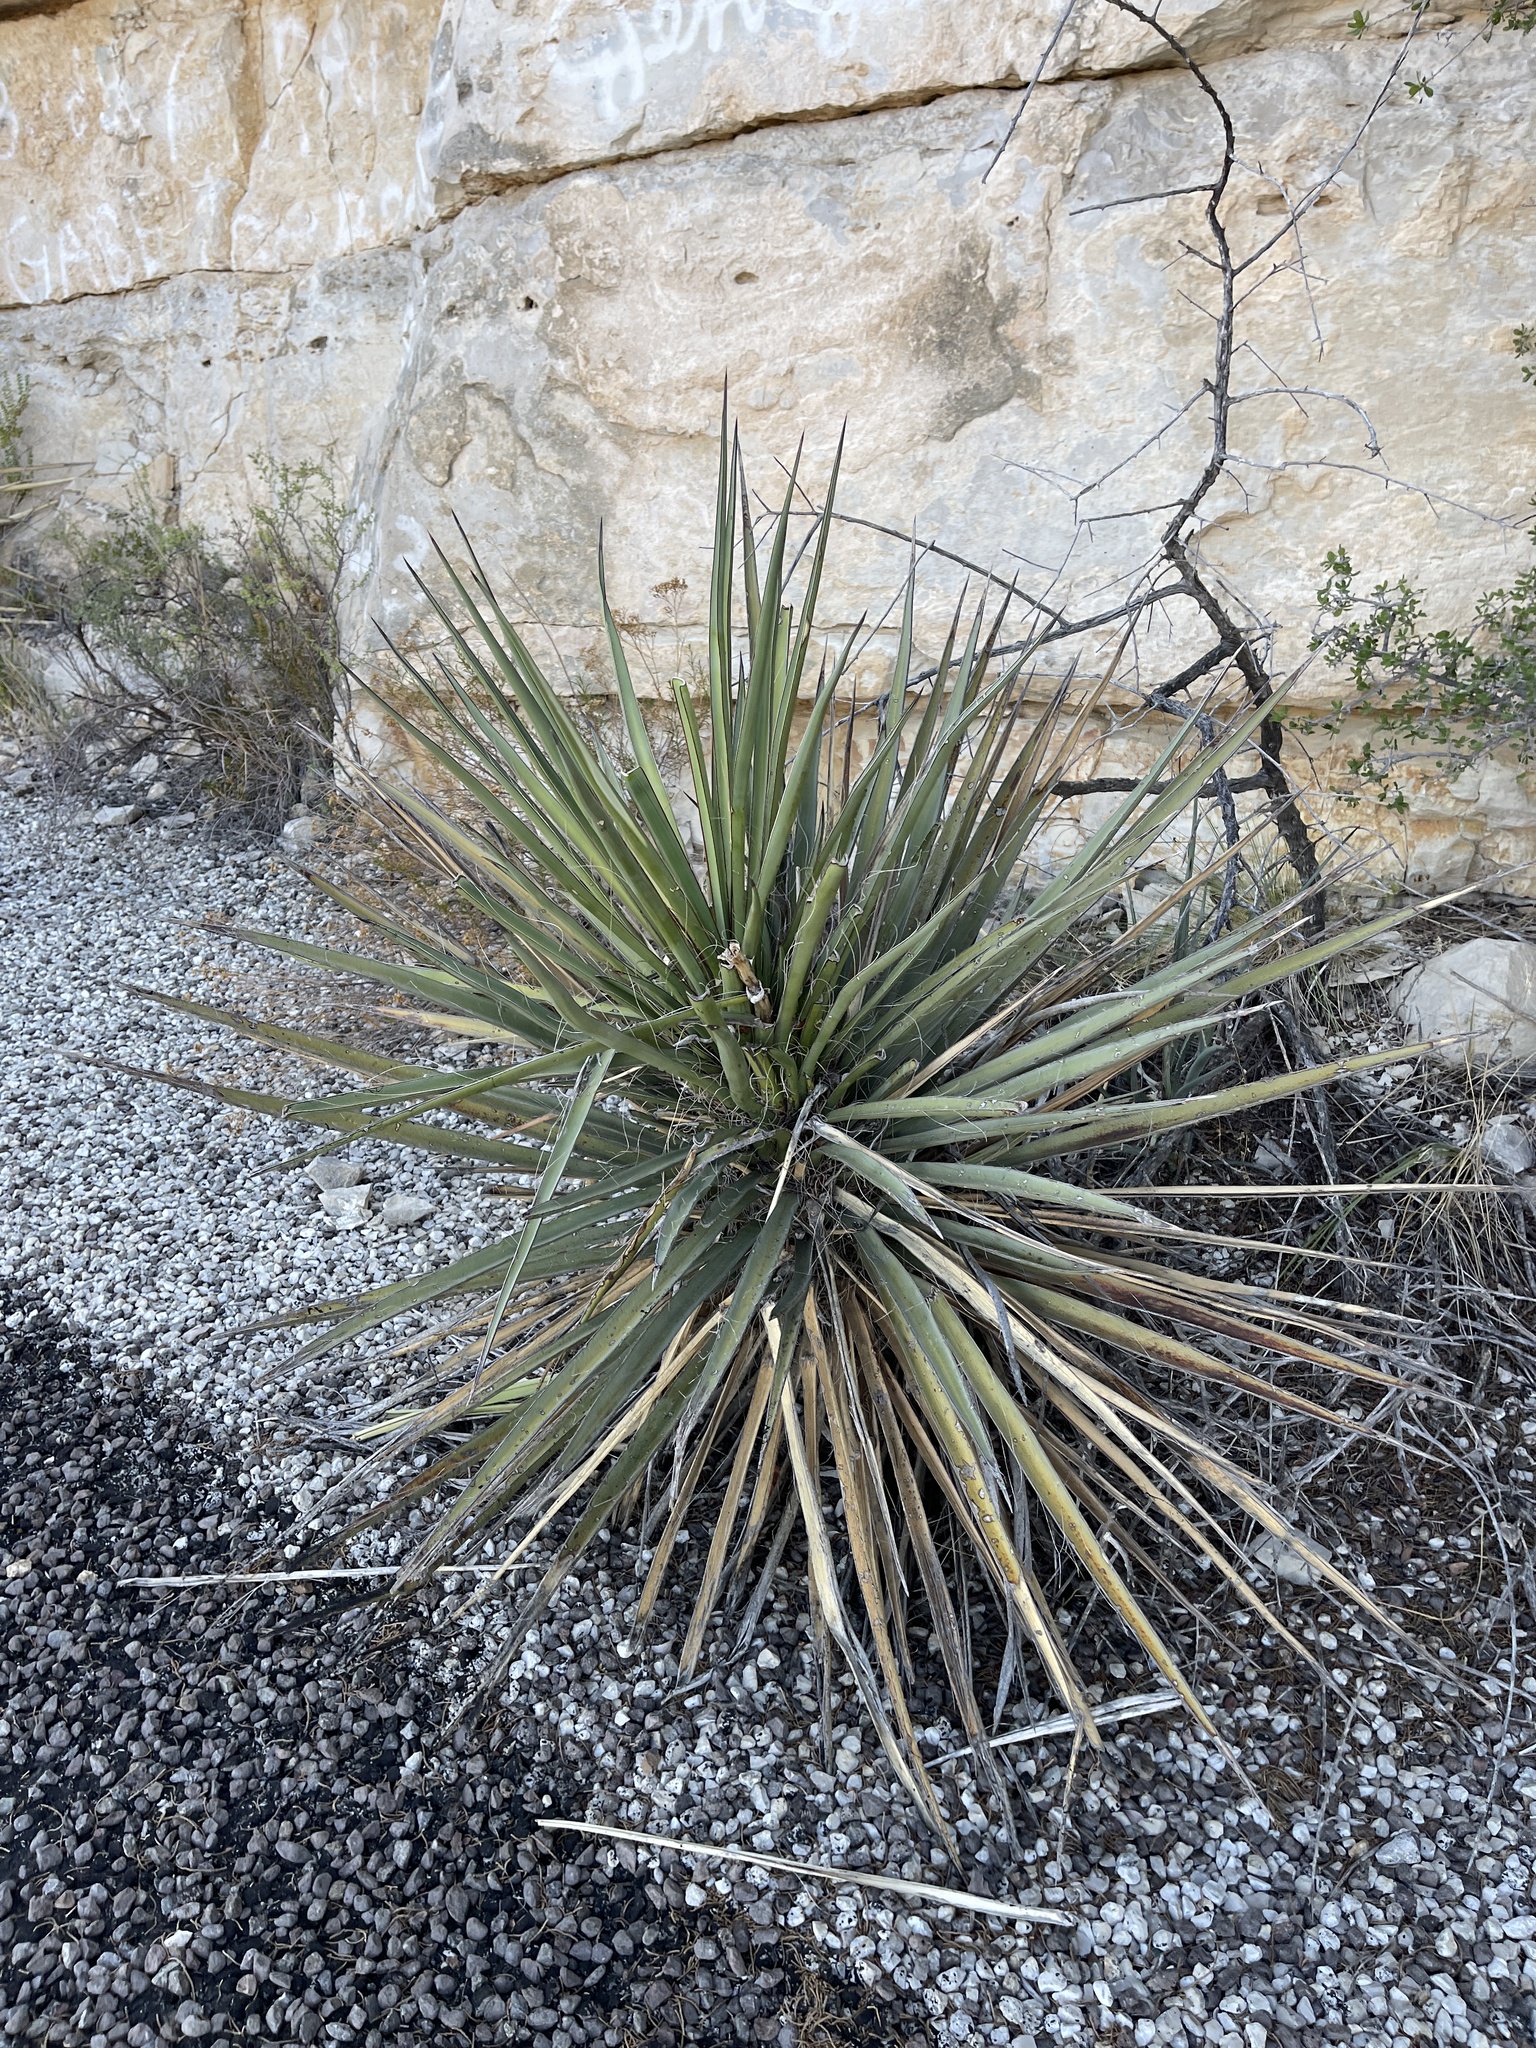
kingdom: Plantae
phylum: Tracheophyta
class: Liliopsida
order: Asparagales
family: Asparagaceae
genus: Yucca
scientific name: Yucca treculiana
